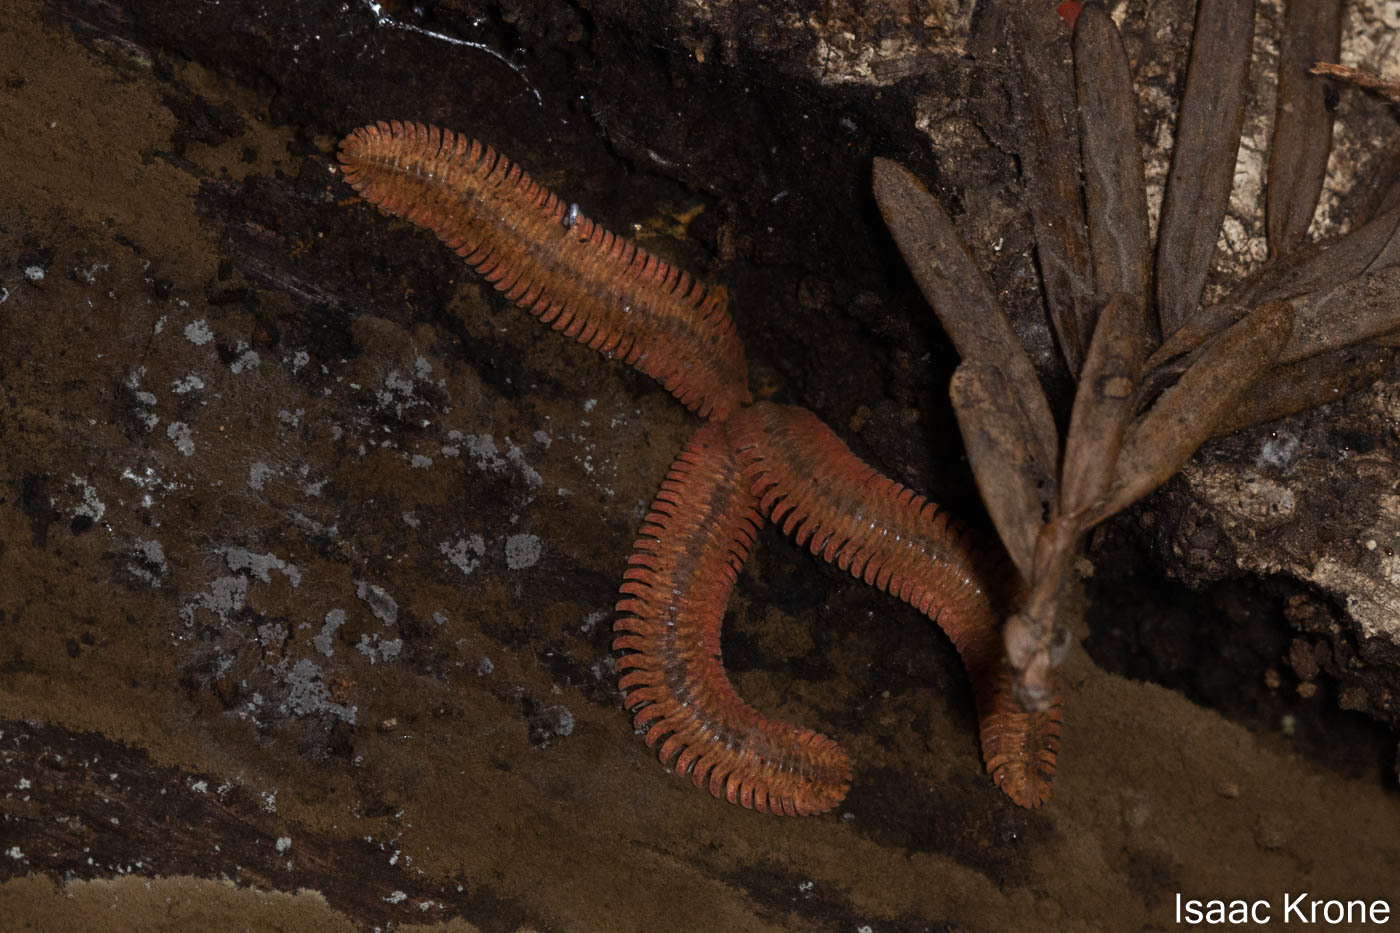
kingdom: Animalia
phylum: Arthropoda
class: Diplopoda
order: Platydesmida
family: Andrognathidae
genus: Brachycybe
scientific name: Brachycybe picta
